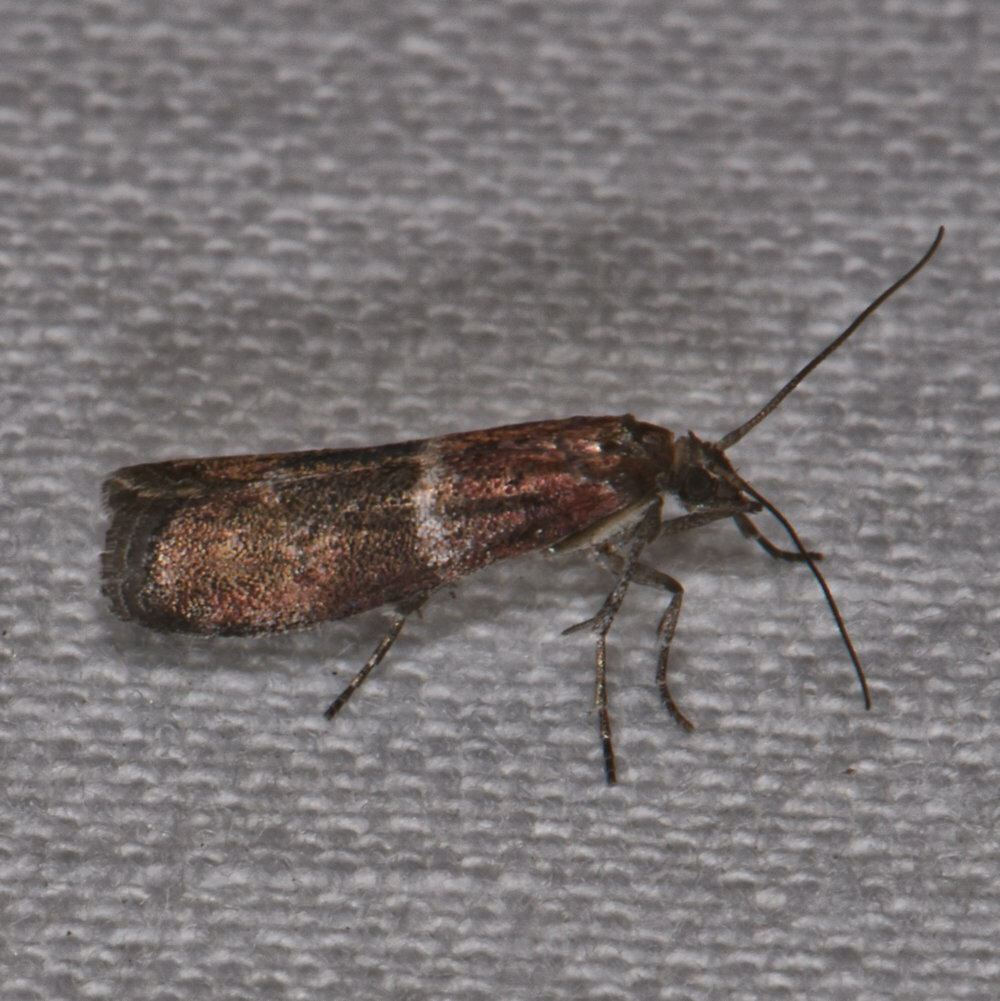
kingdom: Animalia
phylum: Arthropoda
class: Insecta
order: Lepidoptera
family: Pyralidae
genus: Moodna
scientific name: Moodna ostrinella
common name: Darker moodna moth
